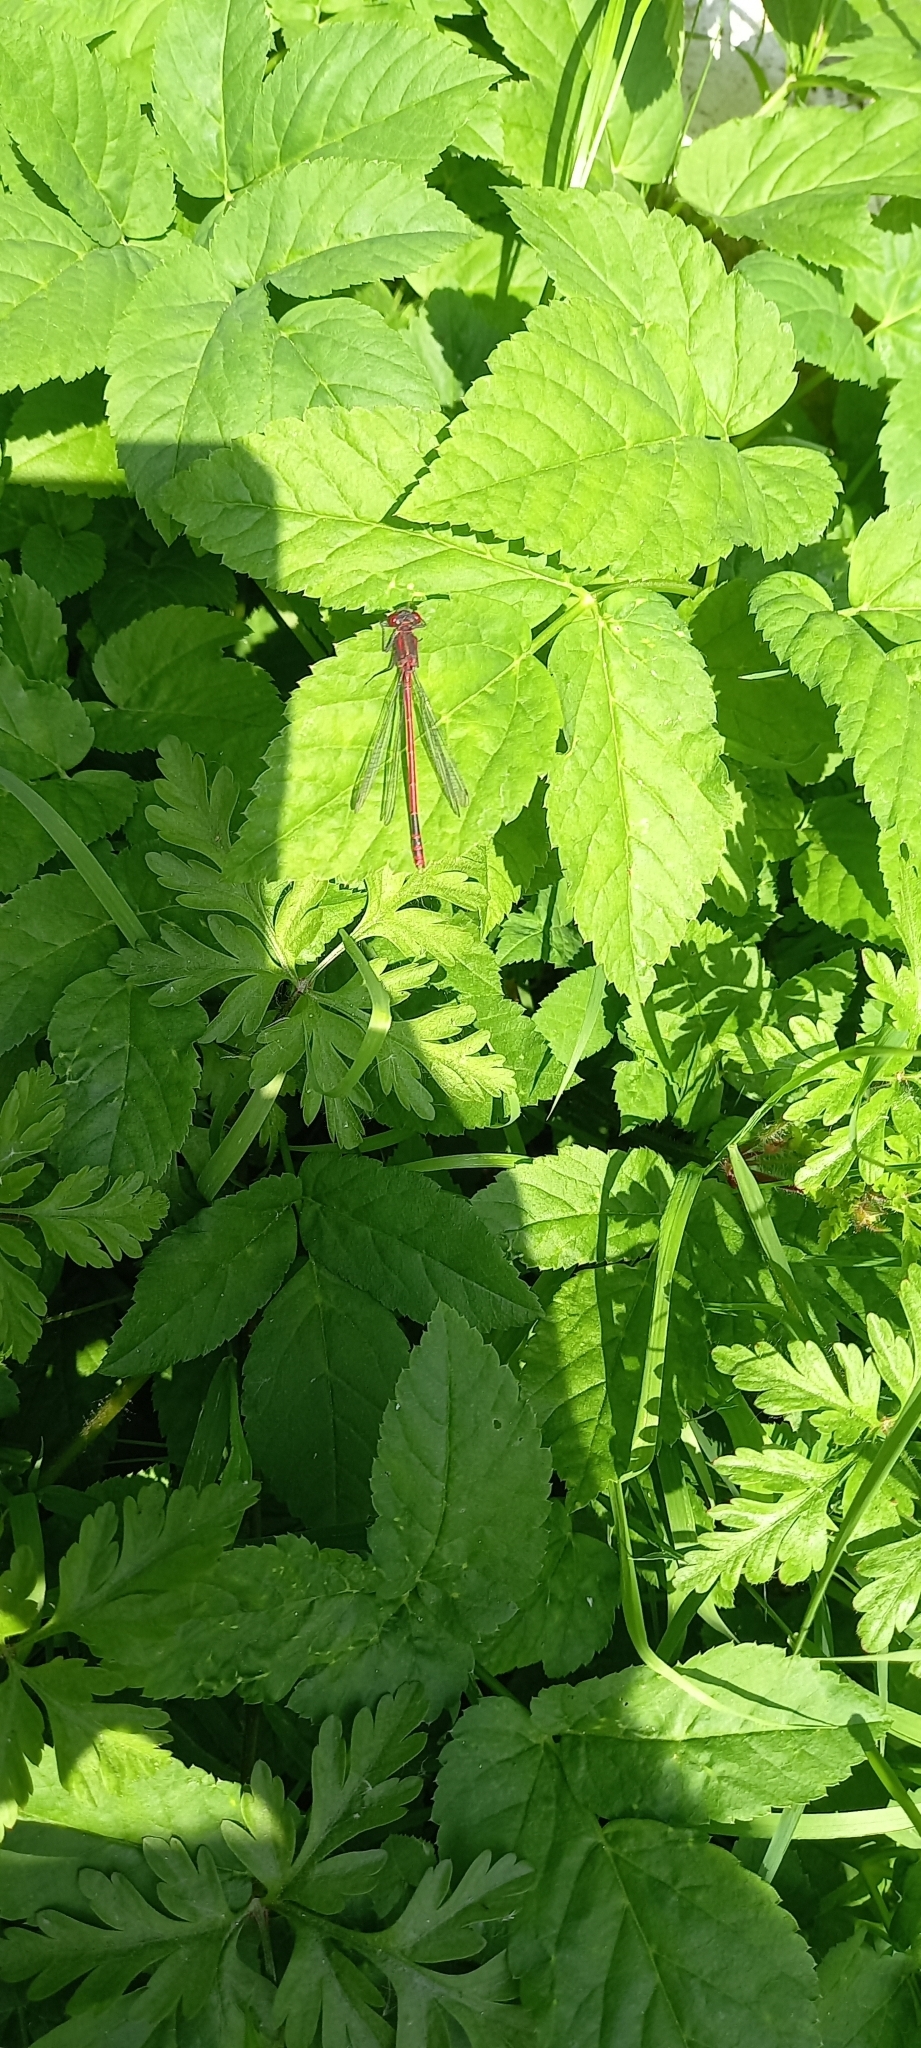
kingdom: Animalia
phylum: Arthropoda
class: Insecta
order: Odonata
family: Coenagrionidae
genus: Pyrrhosoma
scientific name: Pyrrhosoma nymphula
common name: Large red damsel
